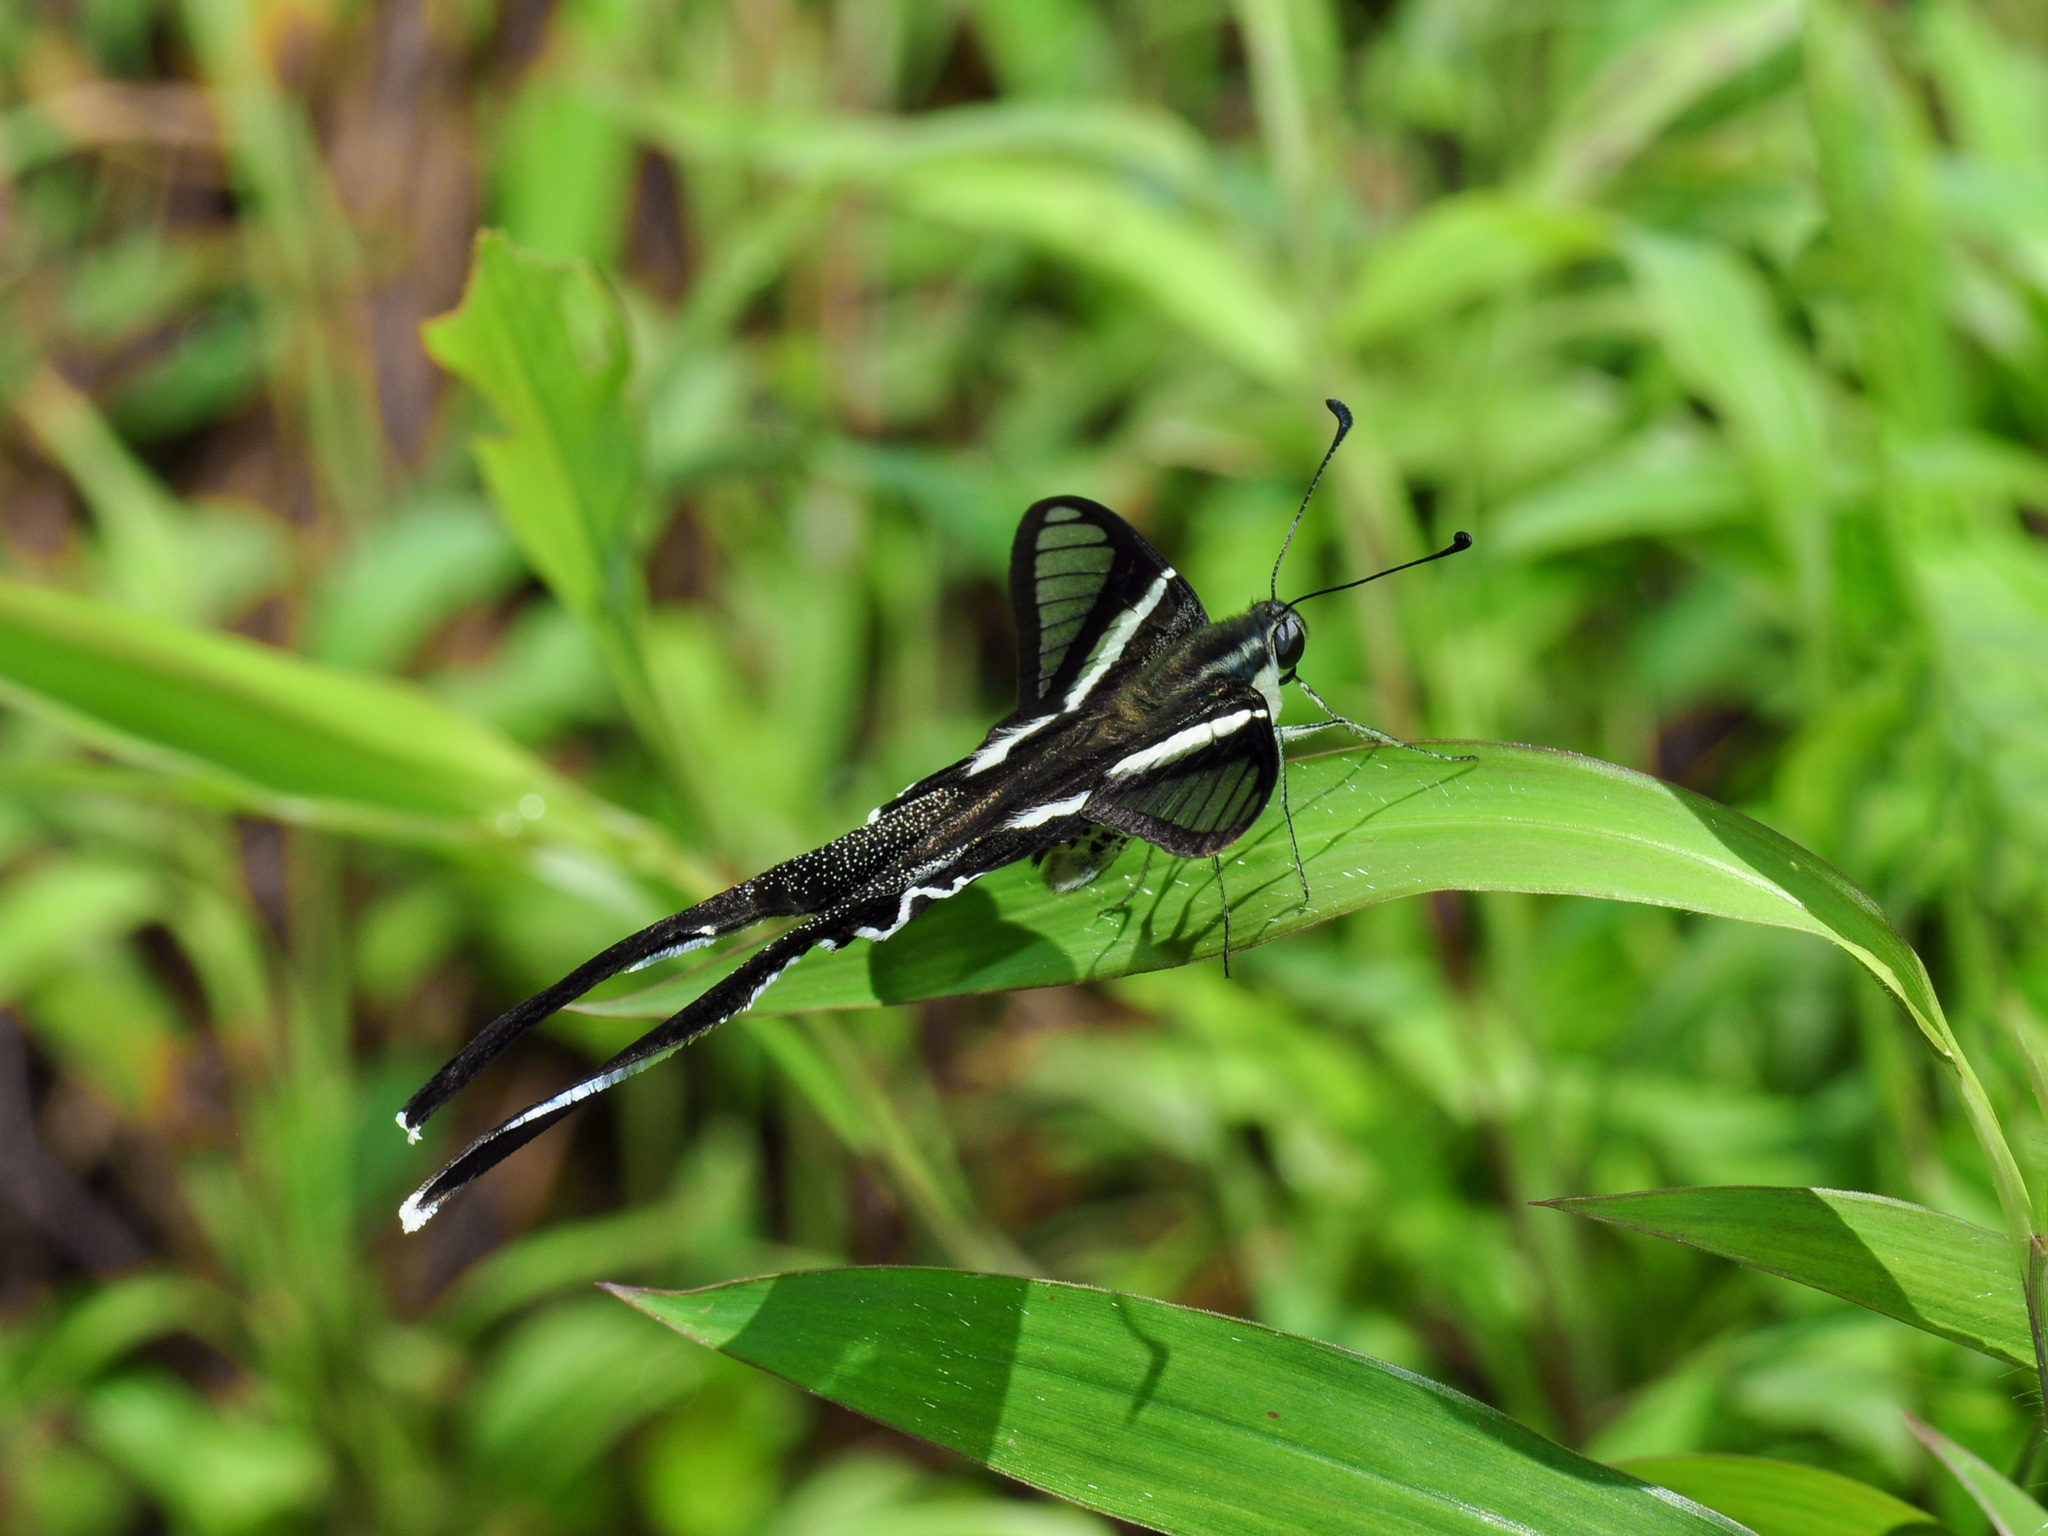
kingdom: Animalia
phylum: Arthropoda
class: Insecta
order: Lepidoptera
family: Papilionidae
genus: Lamproptera
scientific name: Lamproptera curius
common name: White dragontail
